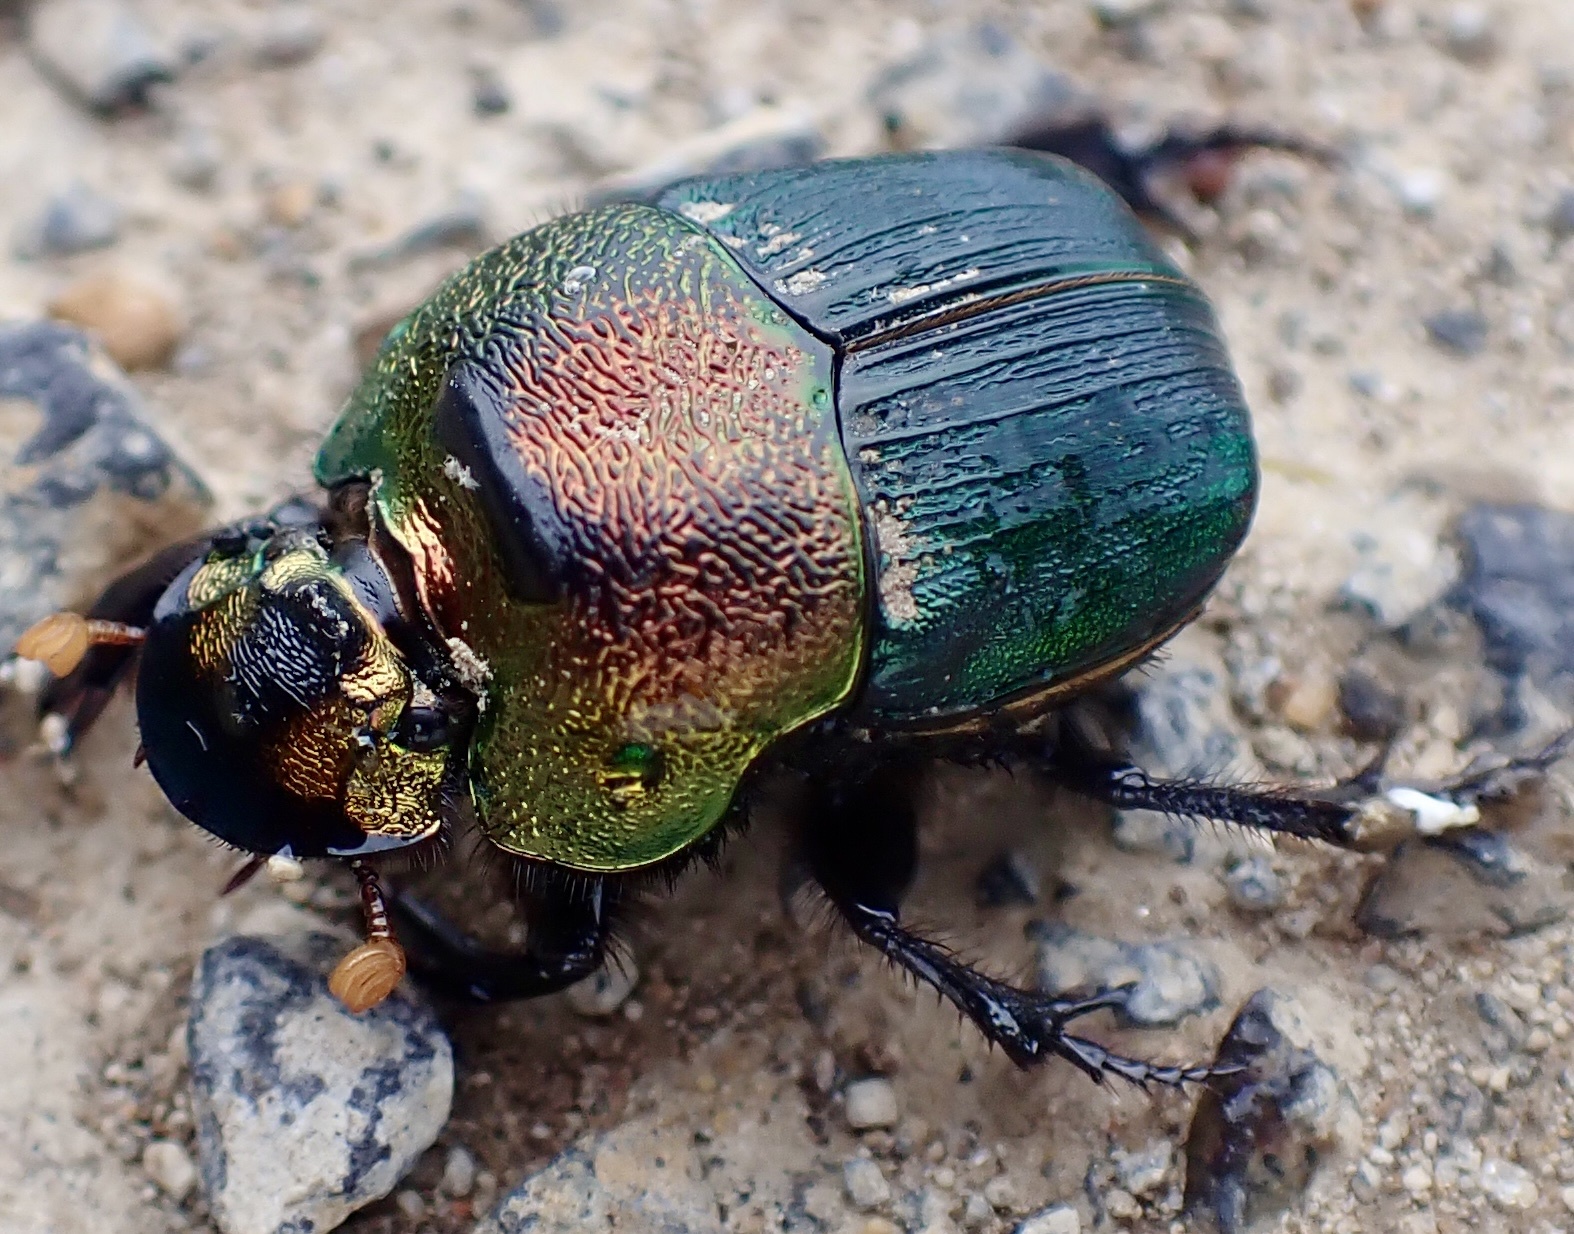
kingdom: Animalia
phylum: Arthropoda
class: Insecta
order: Coleoptera
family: Scarabaeidae
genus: Phanaeus
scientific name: Phanaeus vindex
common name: Rainbow scarab
